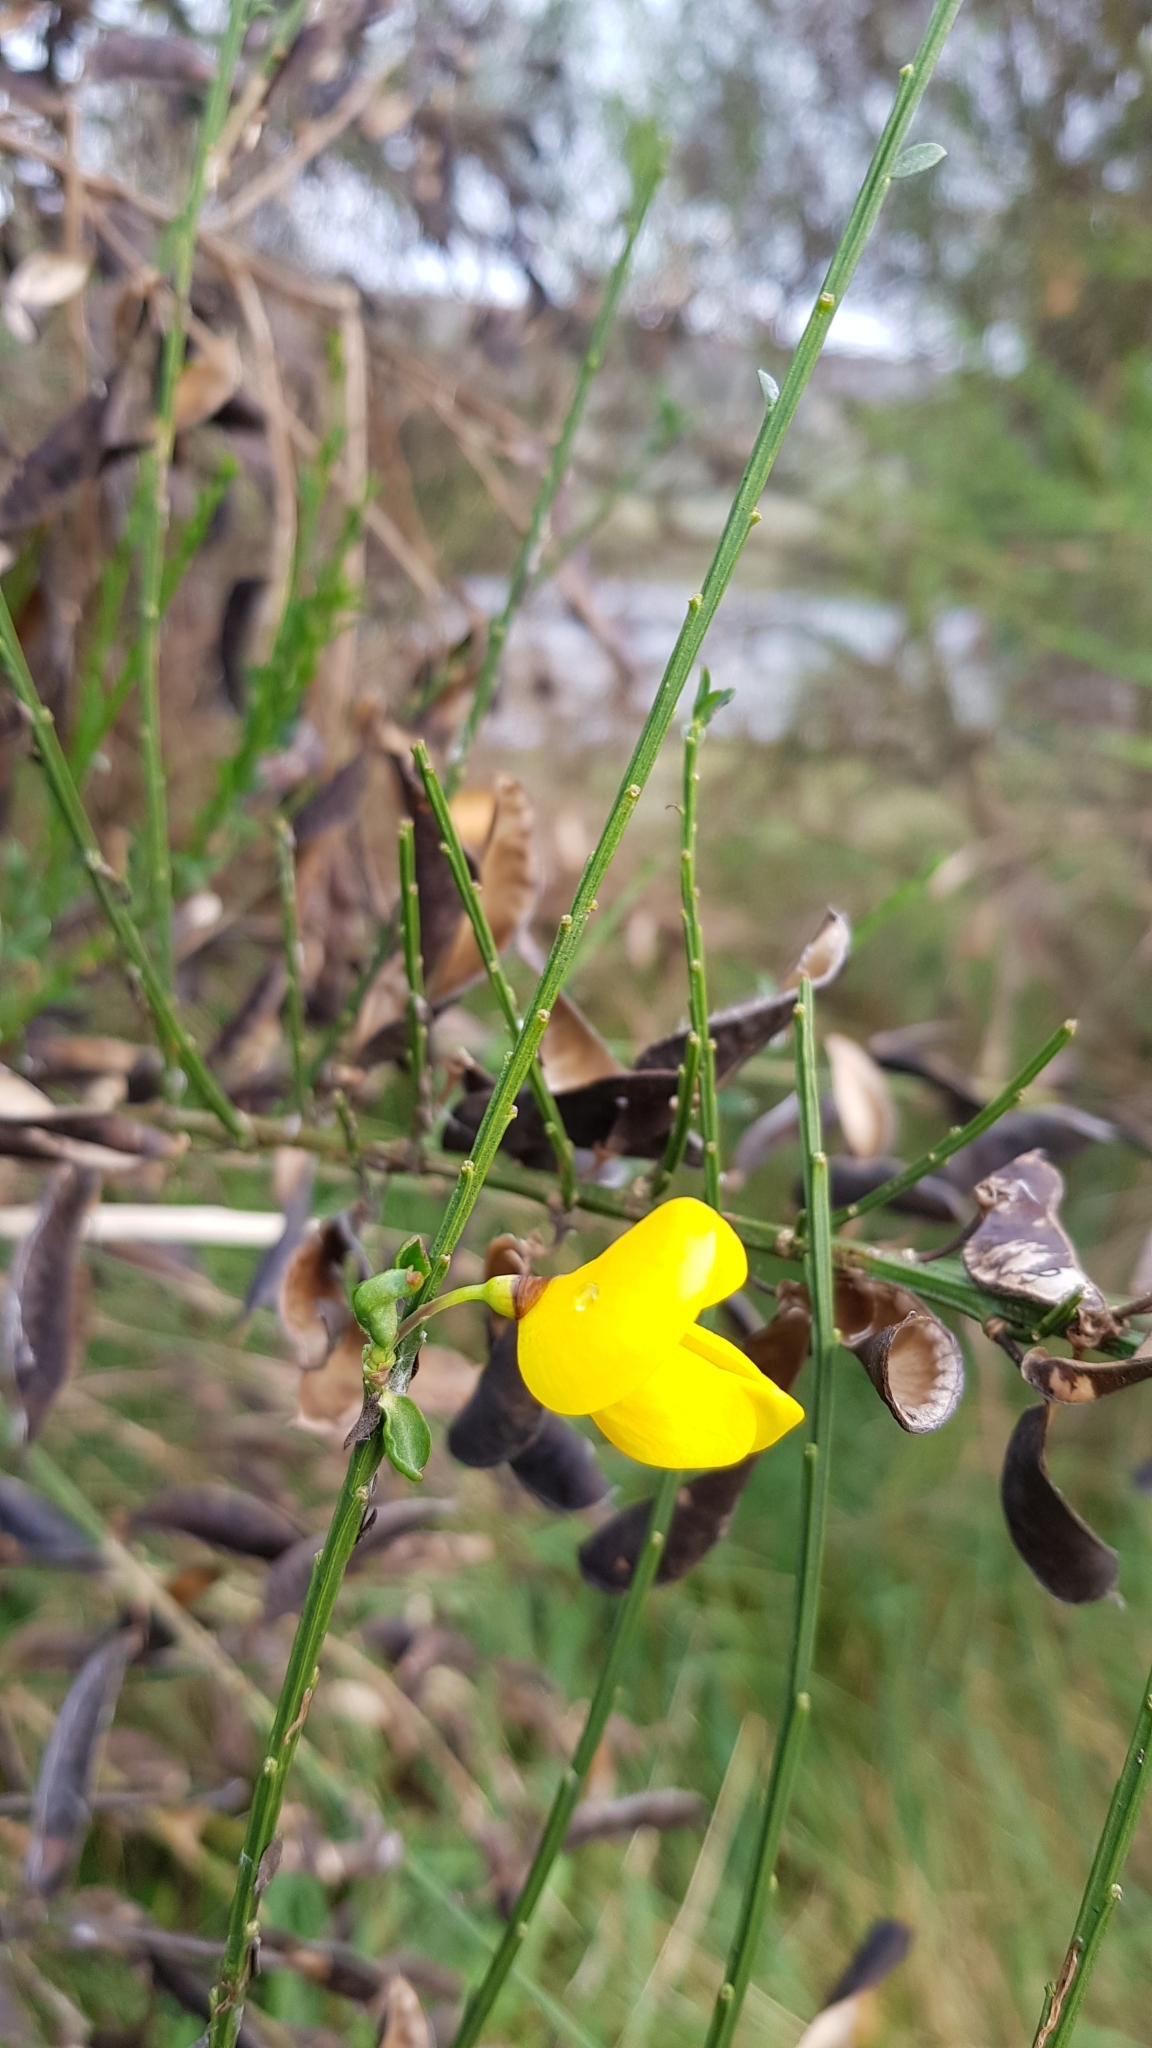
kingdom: Plantae
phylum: Tracheophyta
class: Magnoliopsida
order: Fabales
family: Fabaceae
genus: Cytisus
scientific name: Cytisus scoparius
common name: Scotch broom
